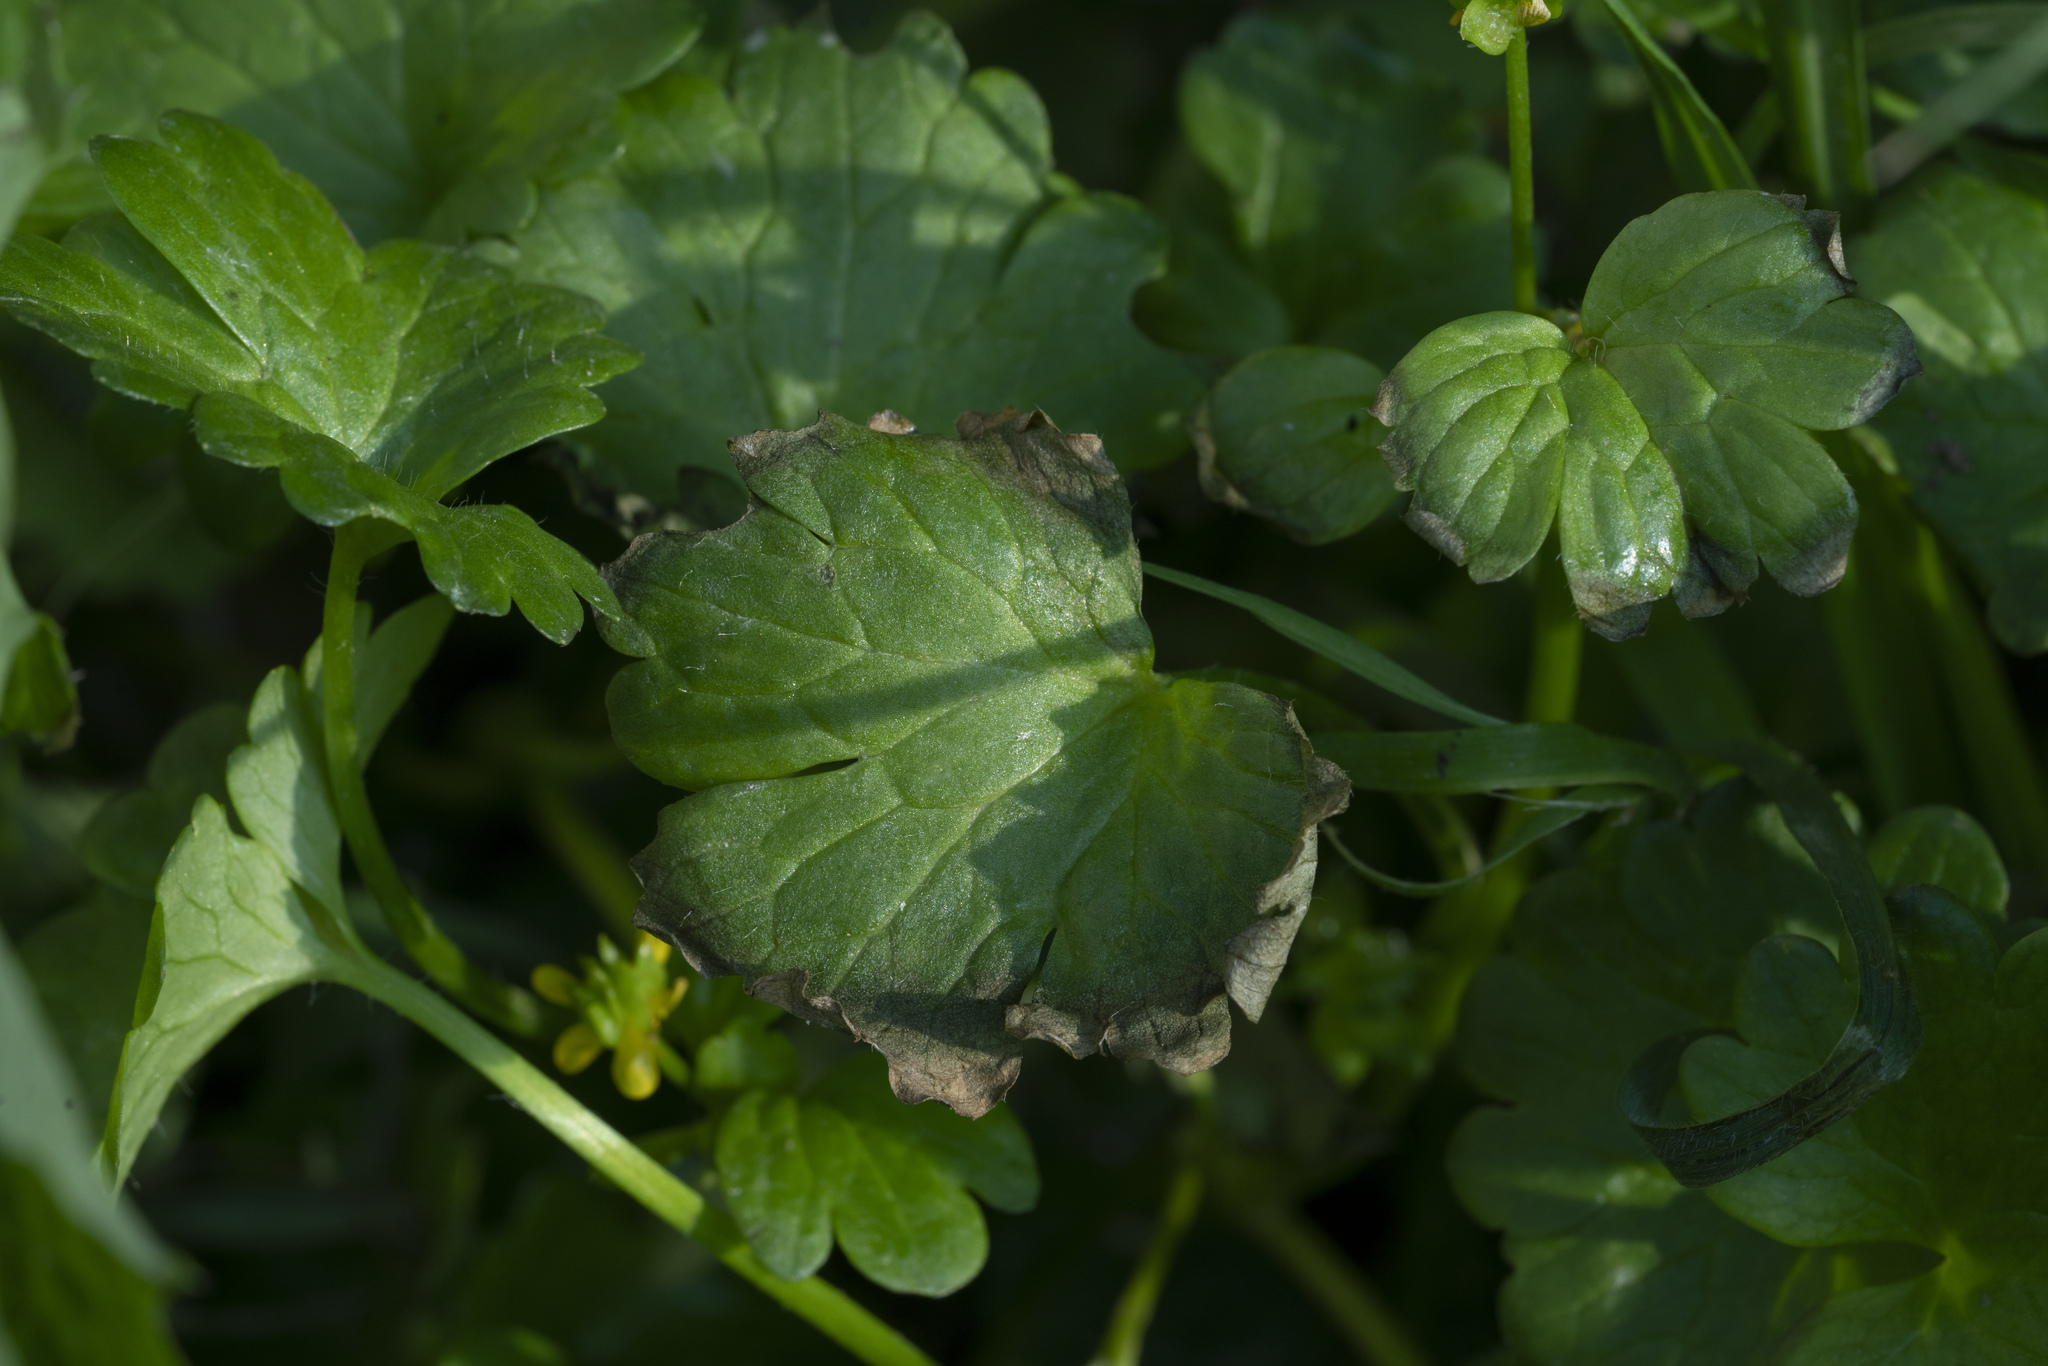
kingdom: Plantae
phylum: Tracheophyta
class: Magnoliopsida
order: Ranunculales
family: Ranunculaceae
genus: Ranunculus
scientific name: Ranunculus muricatus
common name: Rough-fruited buttercup
